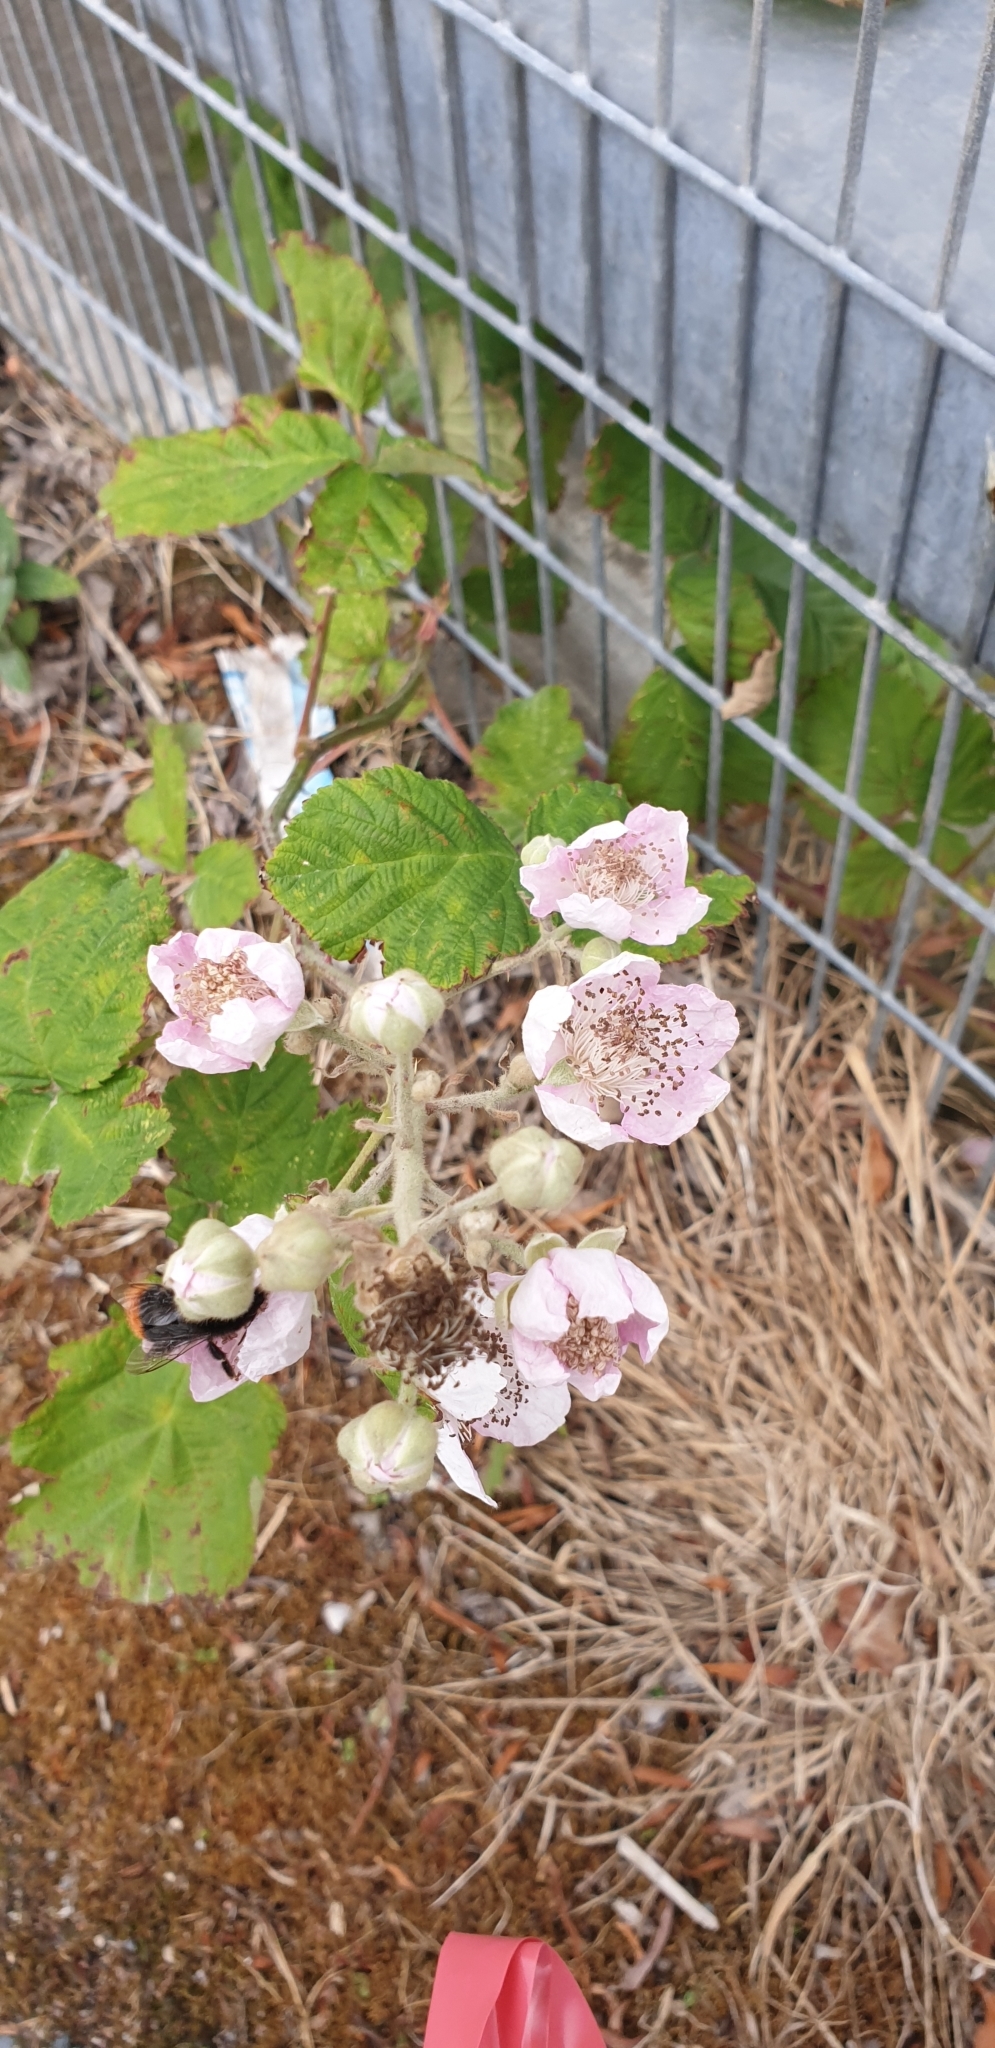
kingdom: Plantae
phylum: Tracheophyta
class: Magnoliopsida
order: Rosales
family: Rosaceae
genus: Rubus
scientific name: Rubus armeniacus
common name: Himalayan blackberry
